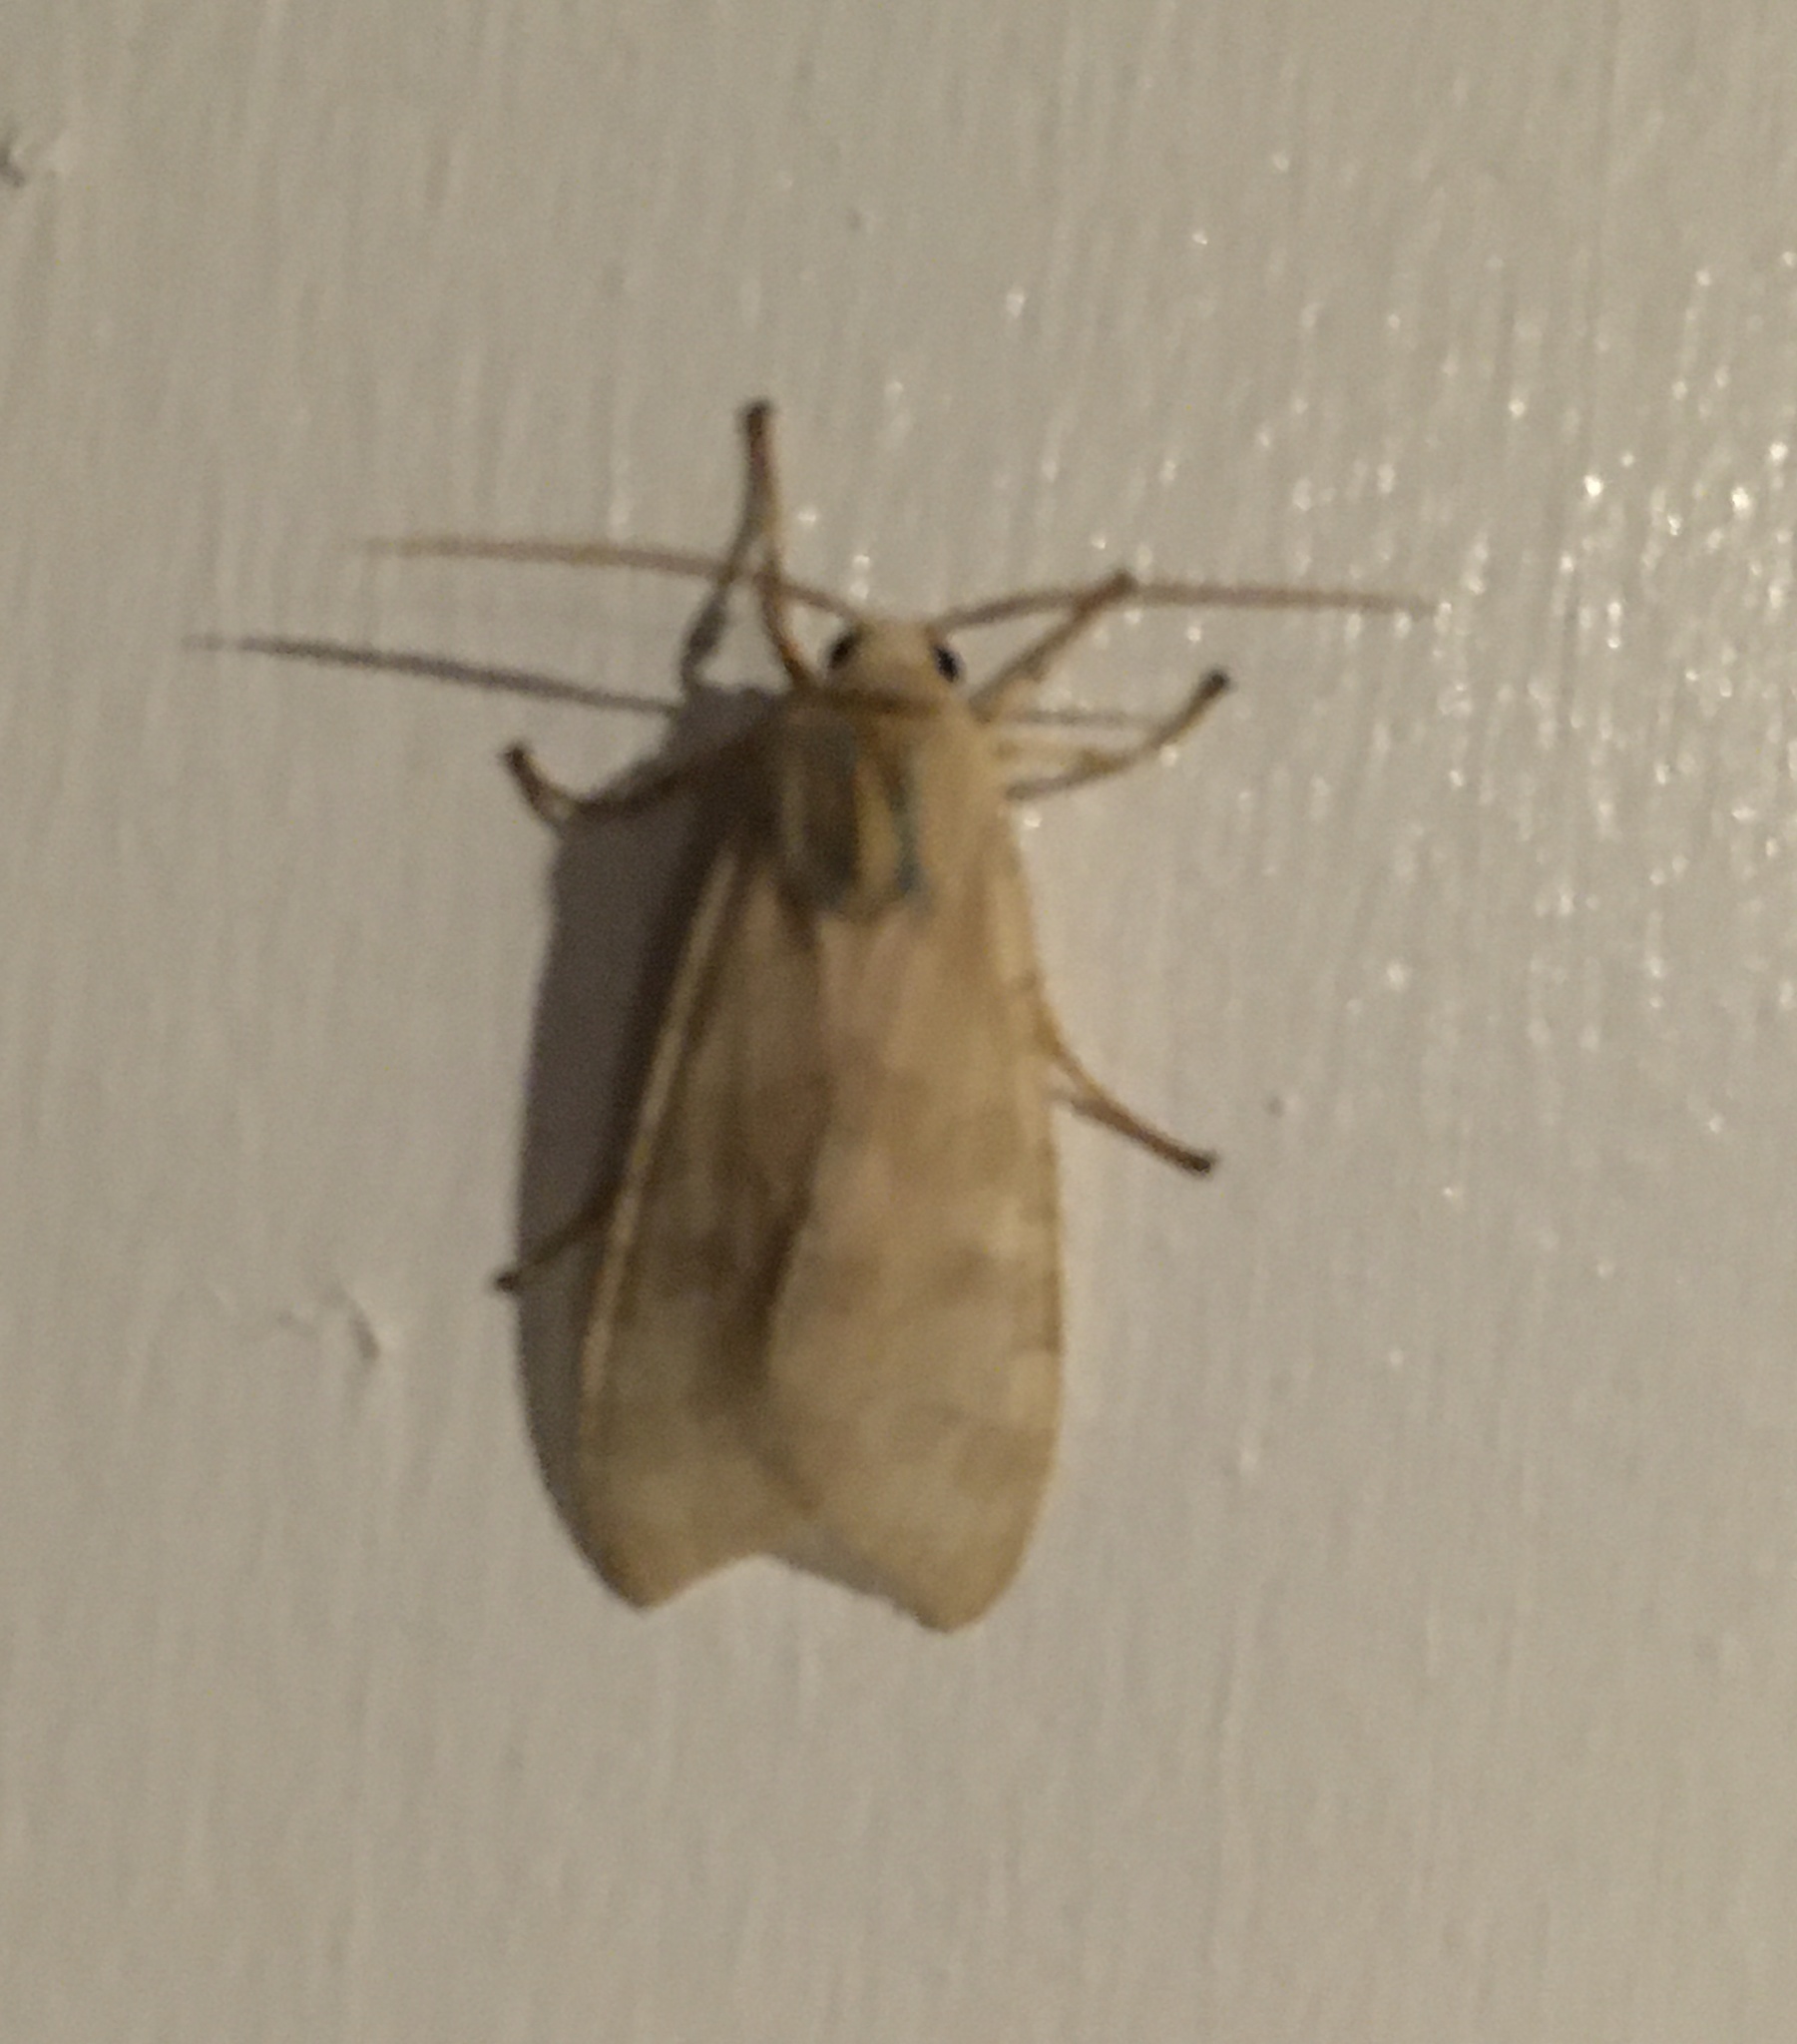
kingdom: Animalia
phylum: Arthropoda
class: Insecta
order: Lepidoptera
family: Erebidae
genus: Halysidota
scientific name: Halysidota
